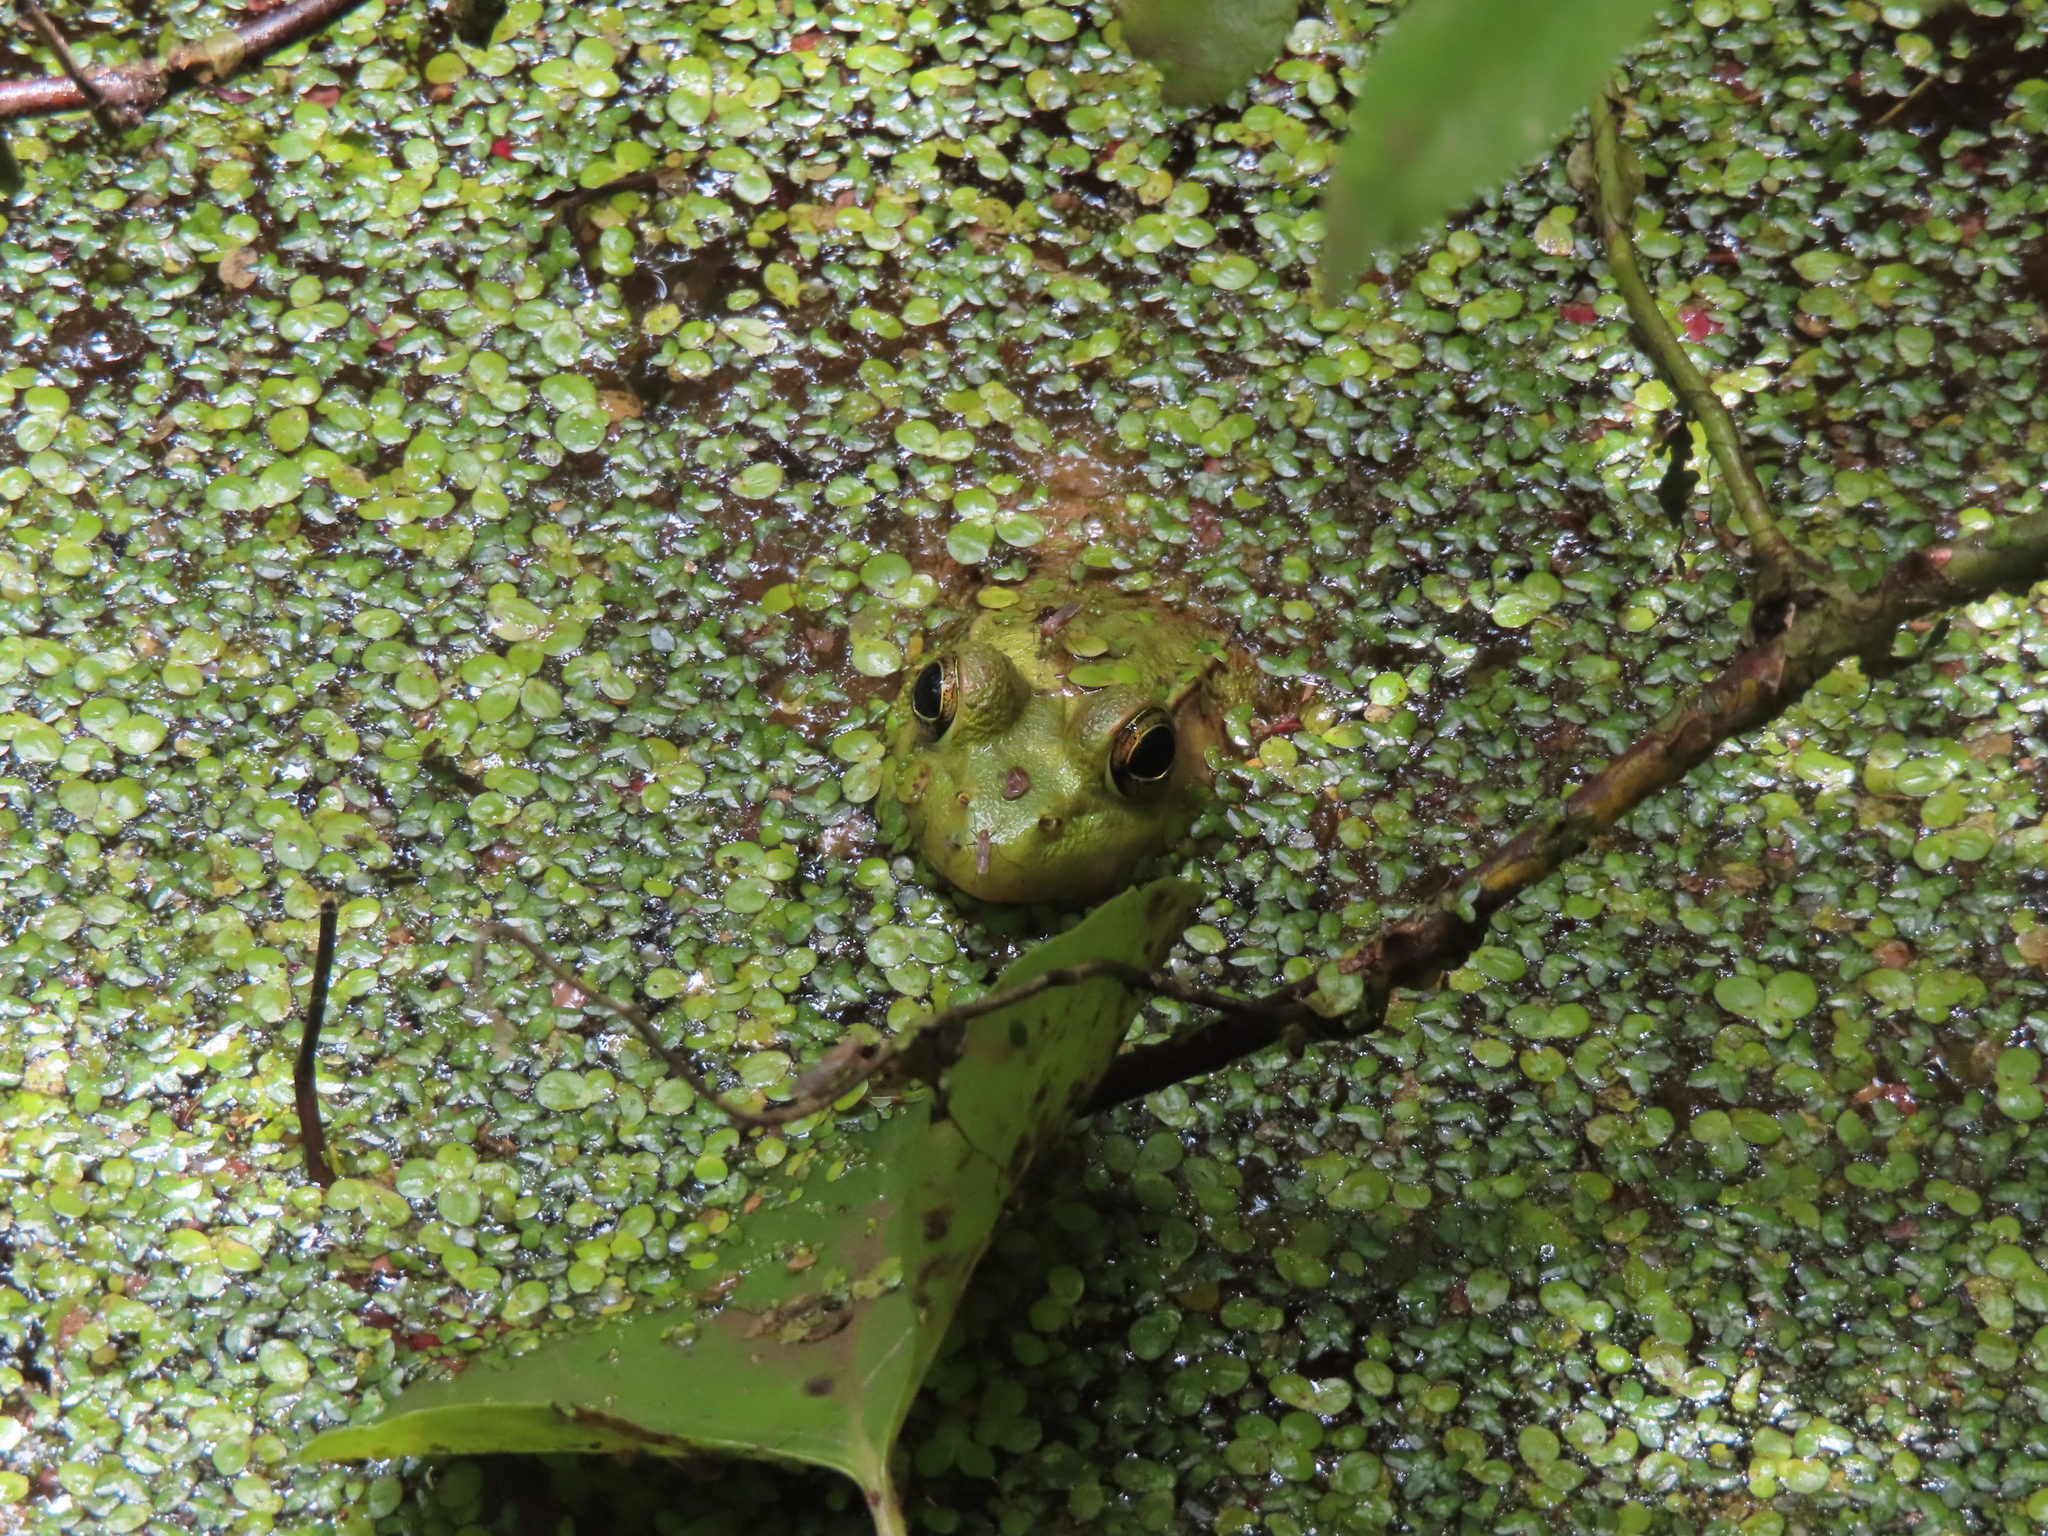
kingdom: Animalia
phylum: Chordata
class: Amphibia
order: Anura
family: Ranidae
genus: Lithobates
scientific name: Lithobates clamitans
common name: Green frog
